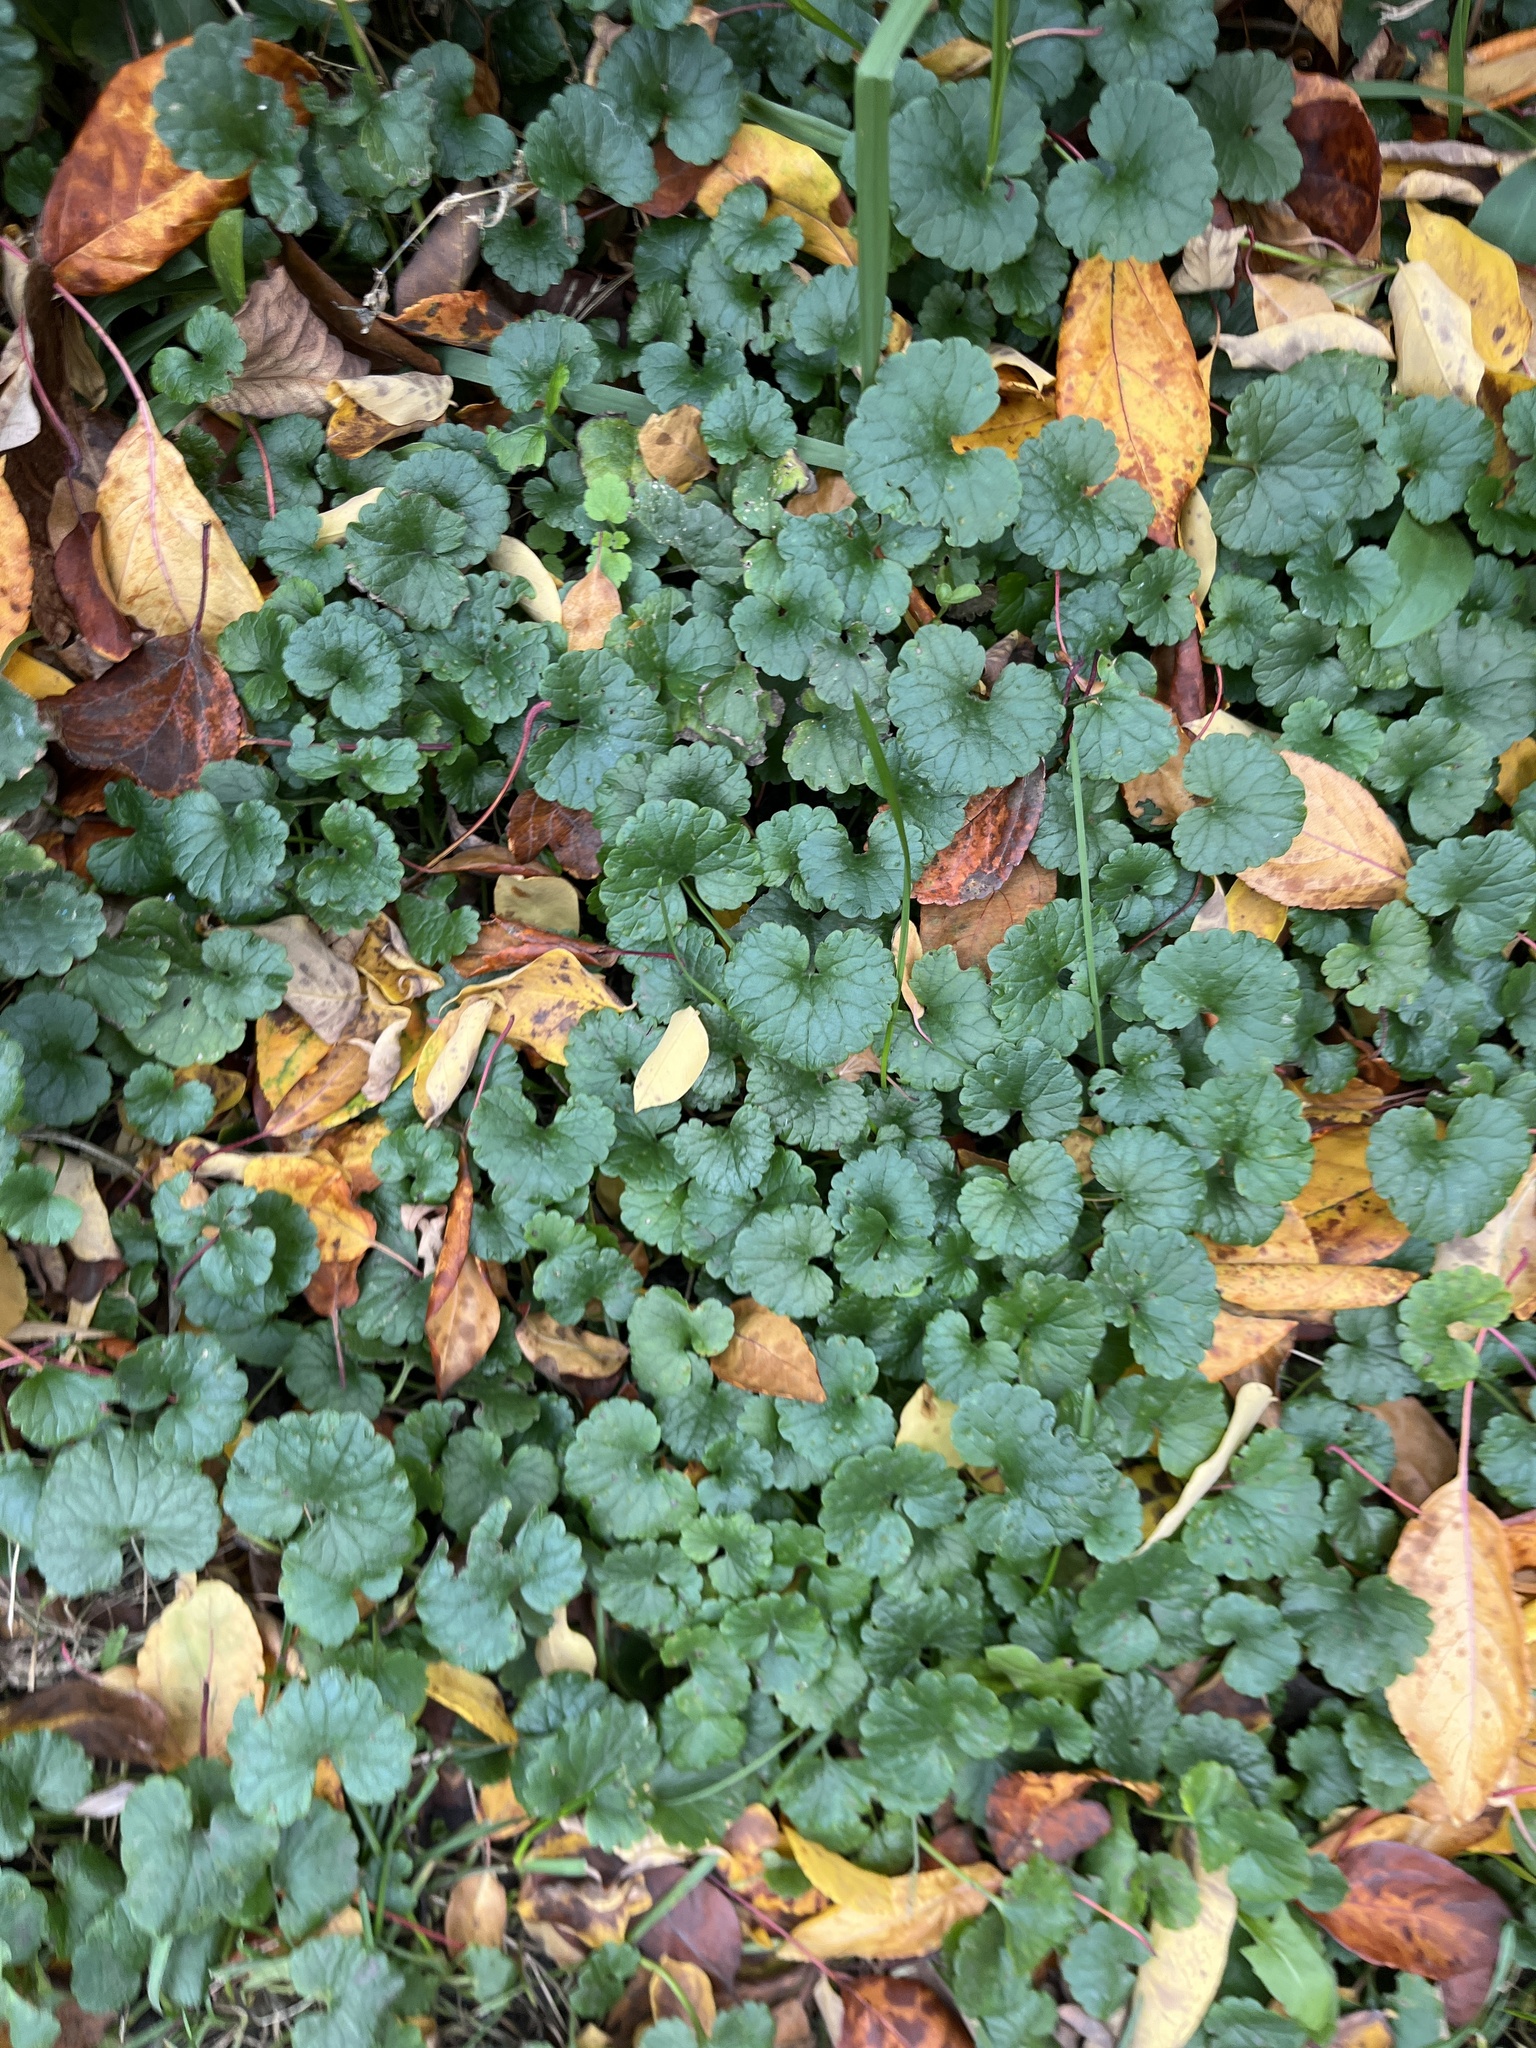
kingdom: Plantae
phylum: Tracheophyta
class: Magnoliopsida
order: Lamiales
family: Lamiaceae
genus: Glechoma
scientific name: Glechoma hederacea
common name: Ground ivy
